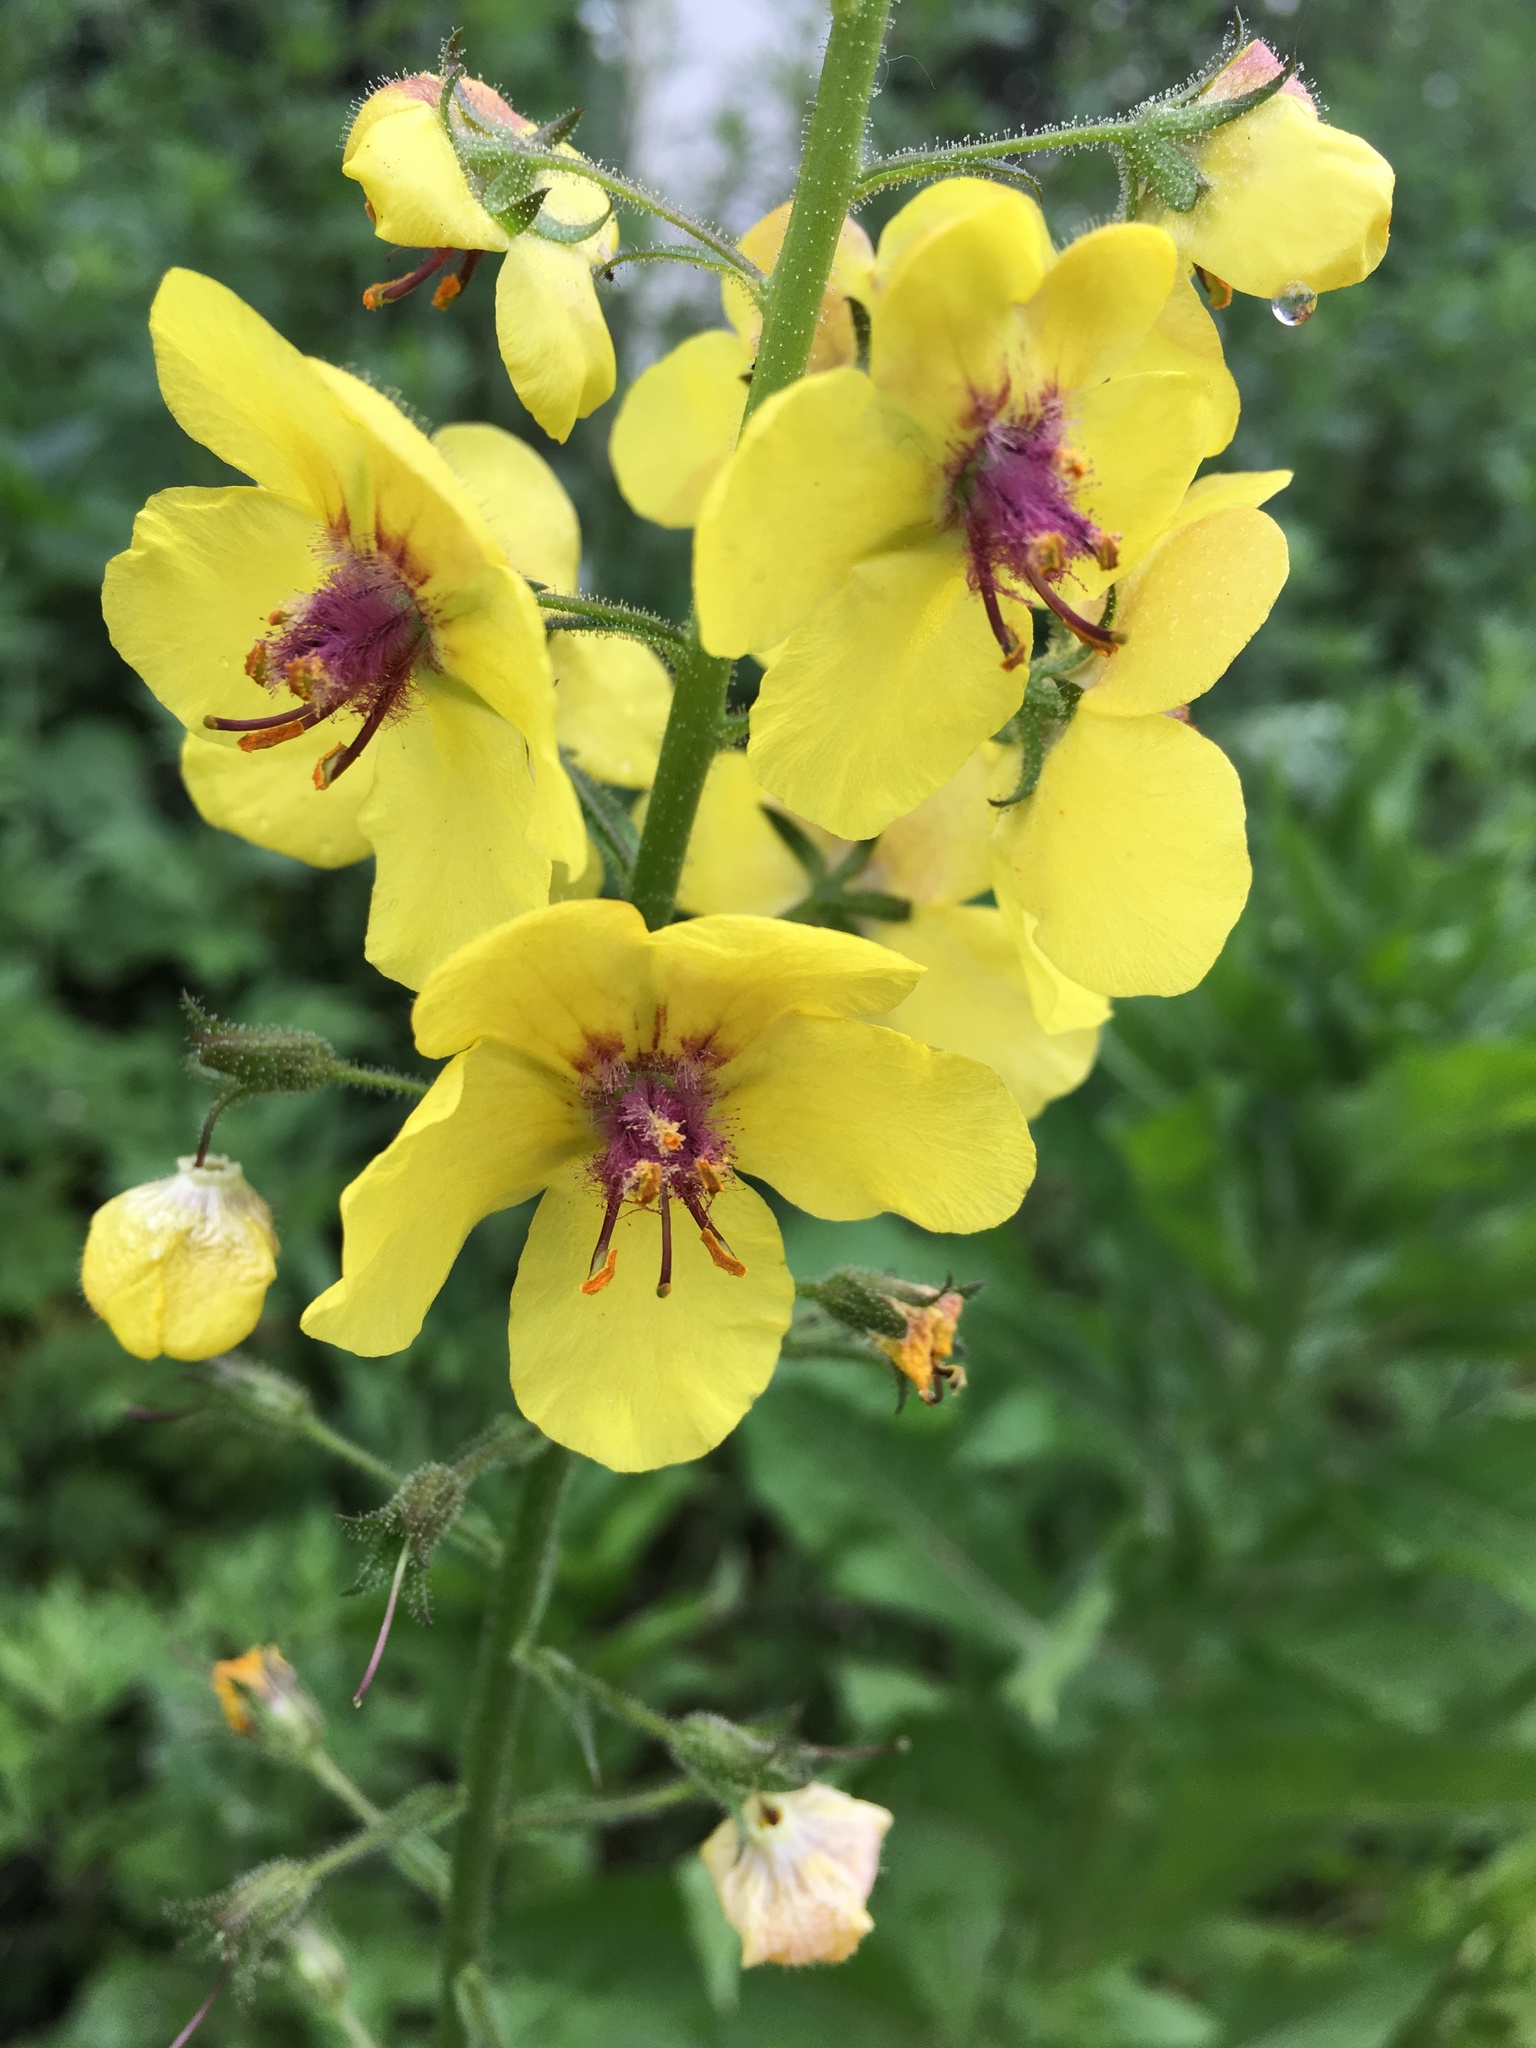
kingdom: Plantae
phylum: Tracheophyta
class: Magnoliopsida
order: Lamiales
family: Scrophulariaceae
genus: Verbascum
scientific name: Verbascum blattaria
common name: Moth mullein
